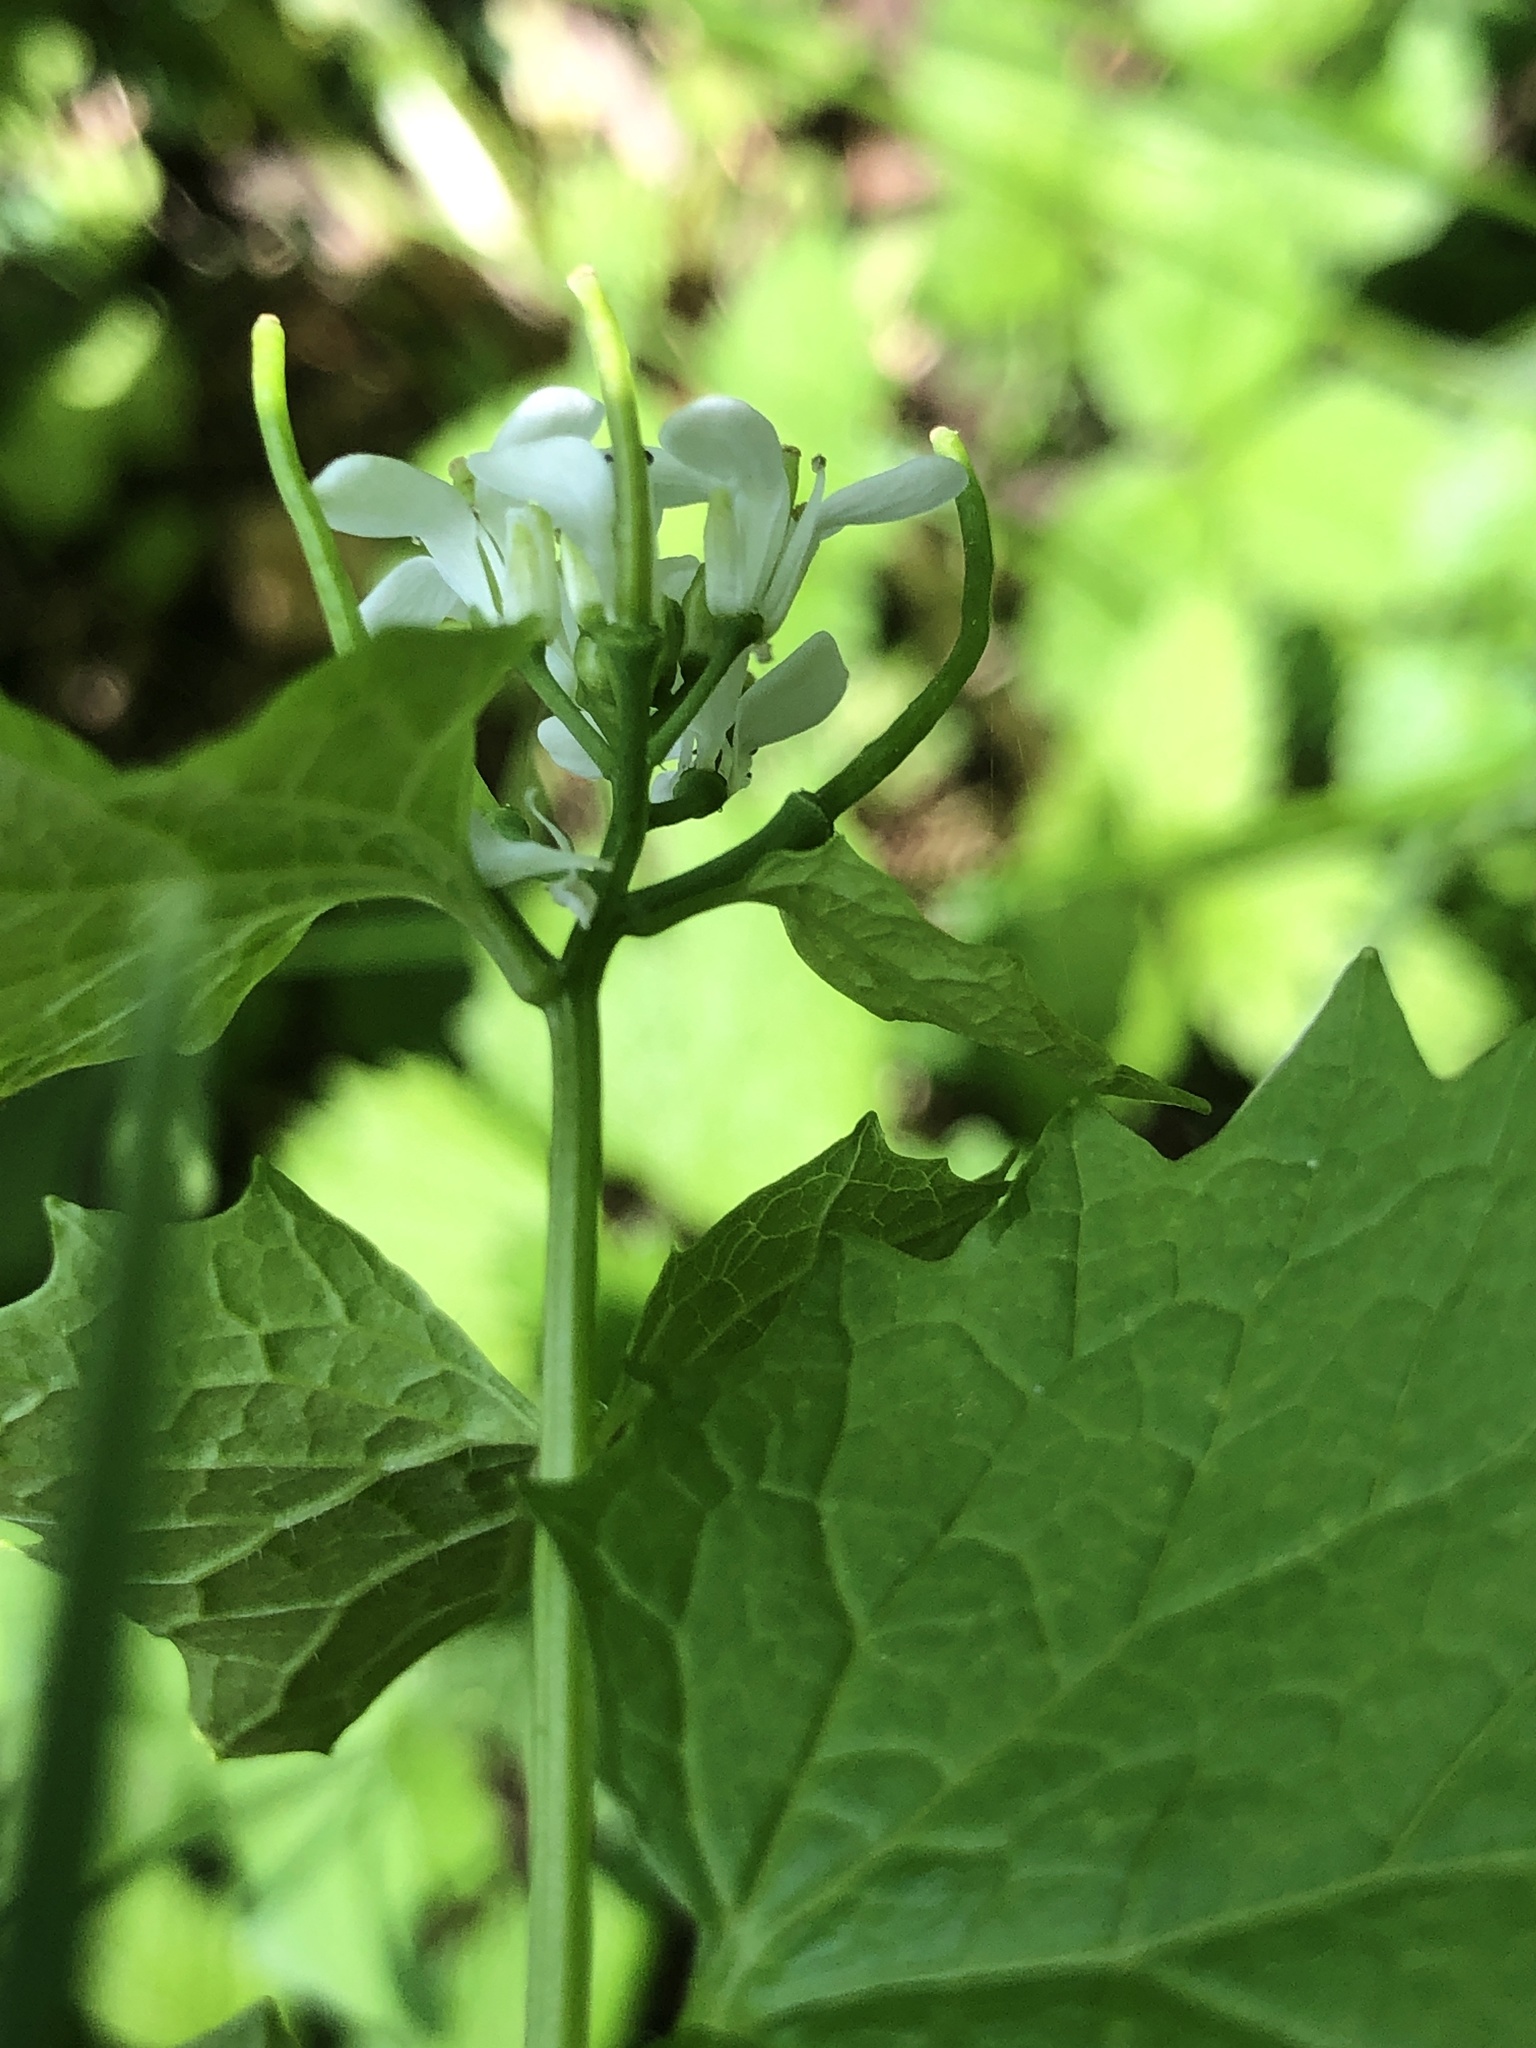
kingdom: Plantae
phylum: Tracheophyta
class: Magnoliopsida
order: Brassicales
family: Brassicaceae
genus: Alliaria
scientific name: Alliaria petiolata
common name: Garlic mustard
